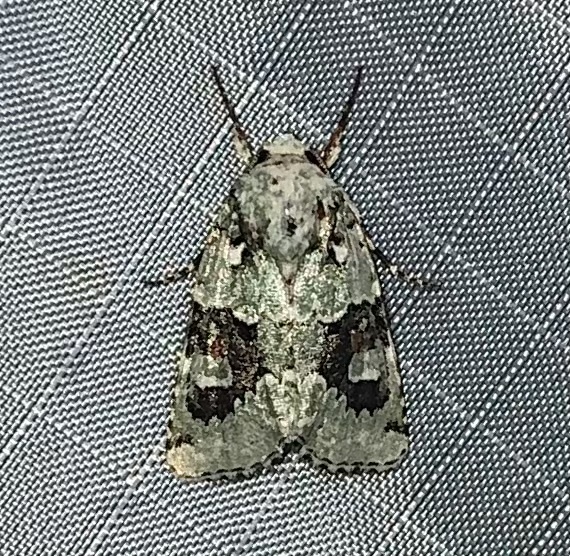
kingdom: Animalia
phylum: Arthropoda
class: Insecta
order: Lepidoptera
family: Noctuidae
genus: Lacinipolia
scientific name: Lacinipolia laudabilis
